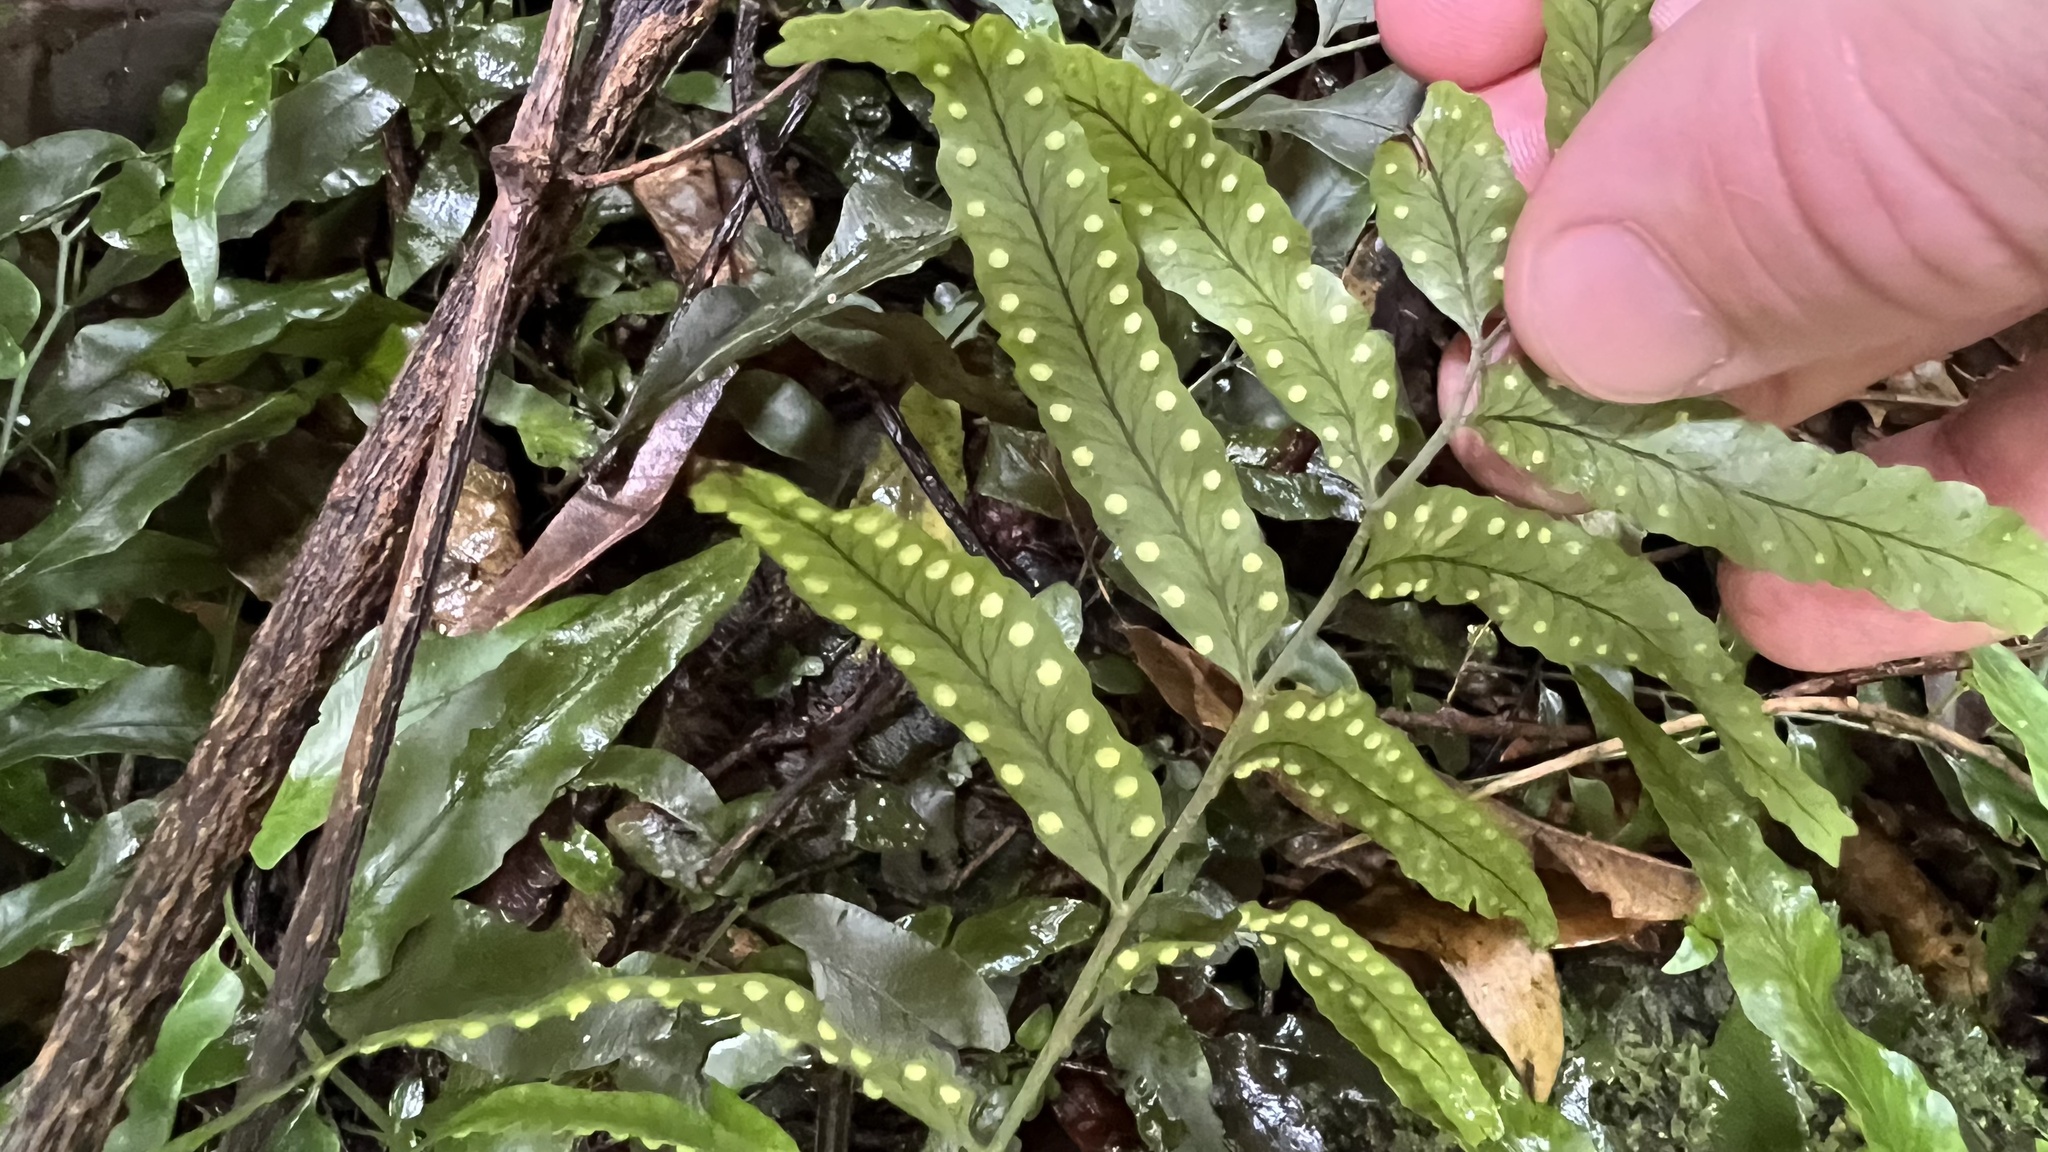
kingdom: Plantae
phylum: Tracheophyta
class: Polypodiopsida
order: Polypodiales
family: Tectariaceae
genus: Arthropteris
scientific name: Arthropteris tenella
